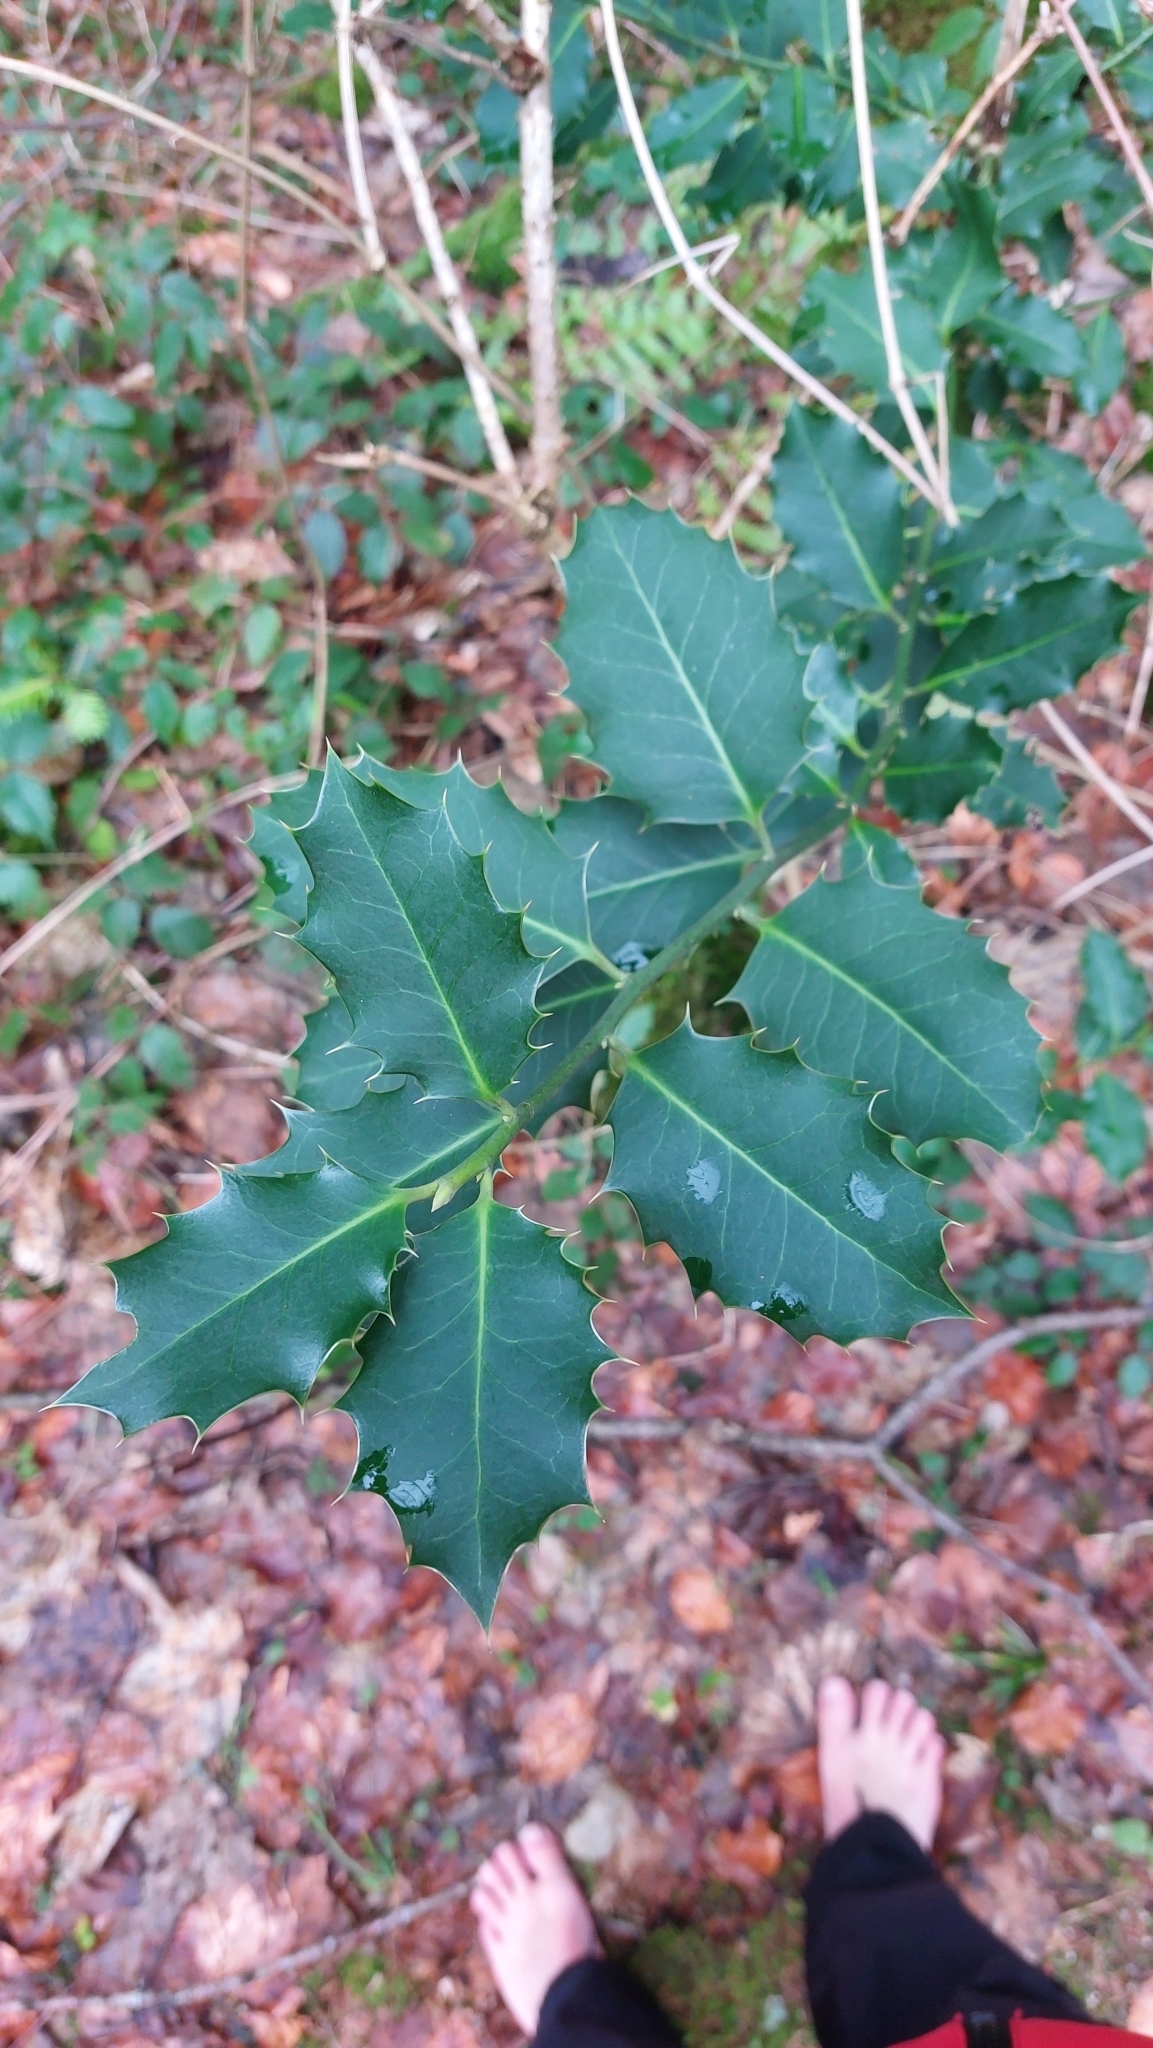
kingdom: Plantae
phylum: Tracheophyta
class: Magnoliopsida
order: Aquifoliales
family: Aquifoliaceae
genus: Ilex
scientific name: Ilex aquifolium
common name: English holly
